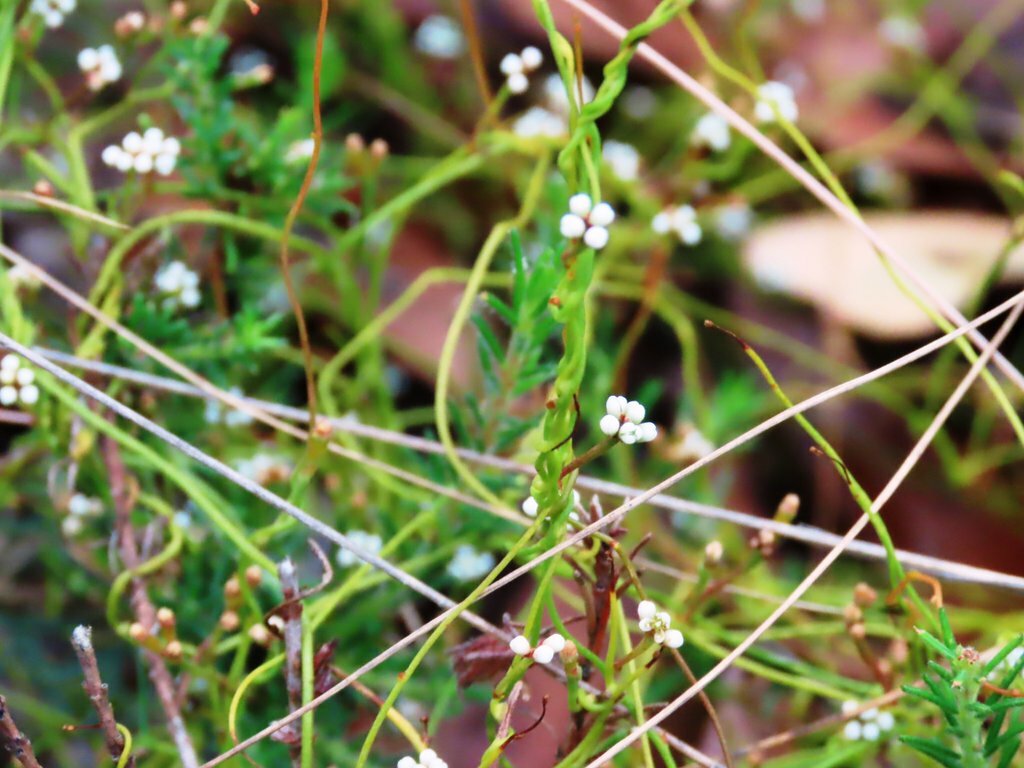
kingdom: Plantae
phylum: Tracheophyta
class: Magnoliopsida
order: Laurales
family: Lauraceae
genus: Cassytha
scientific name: Cassytha glabella
